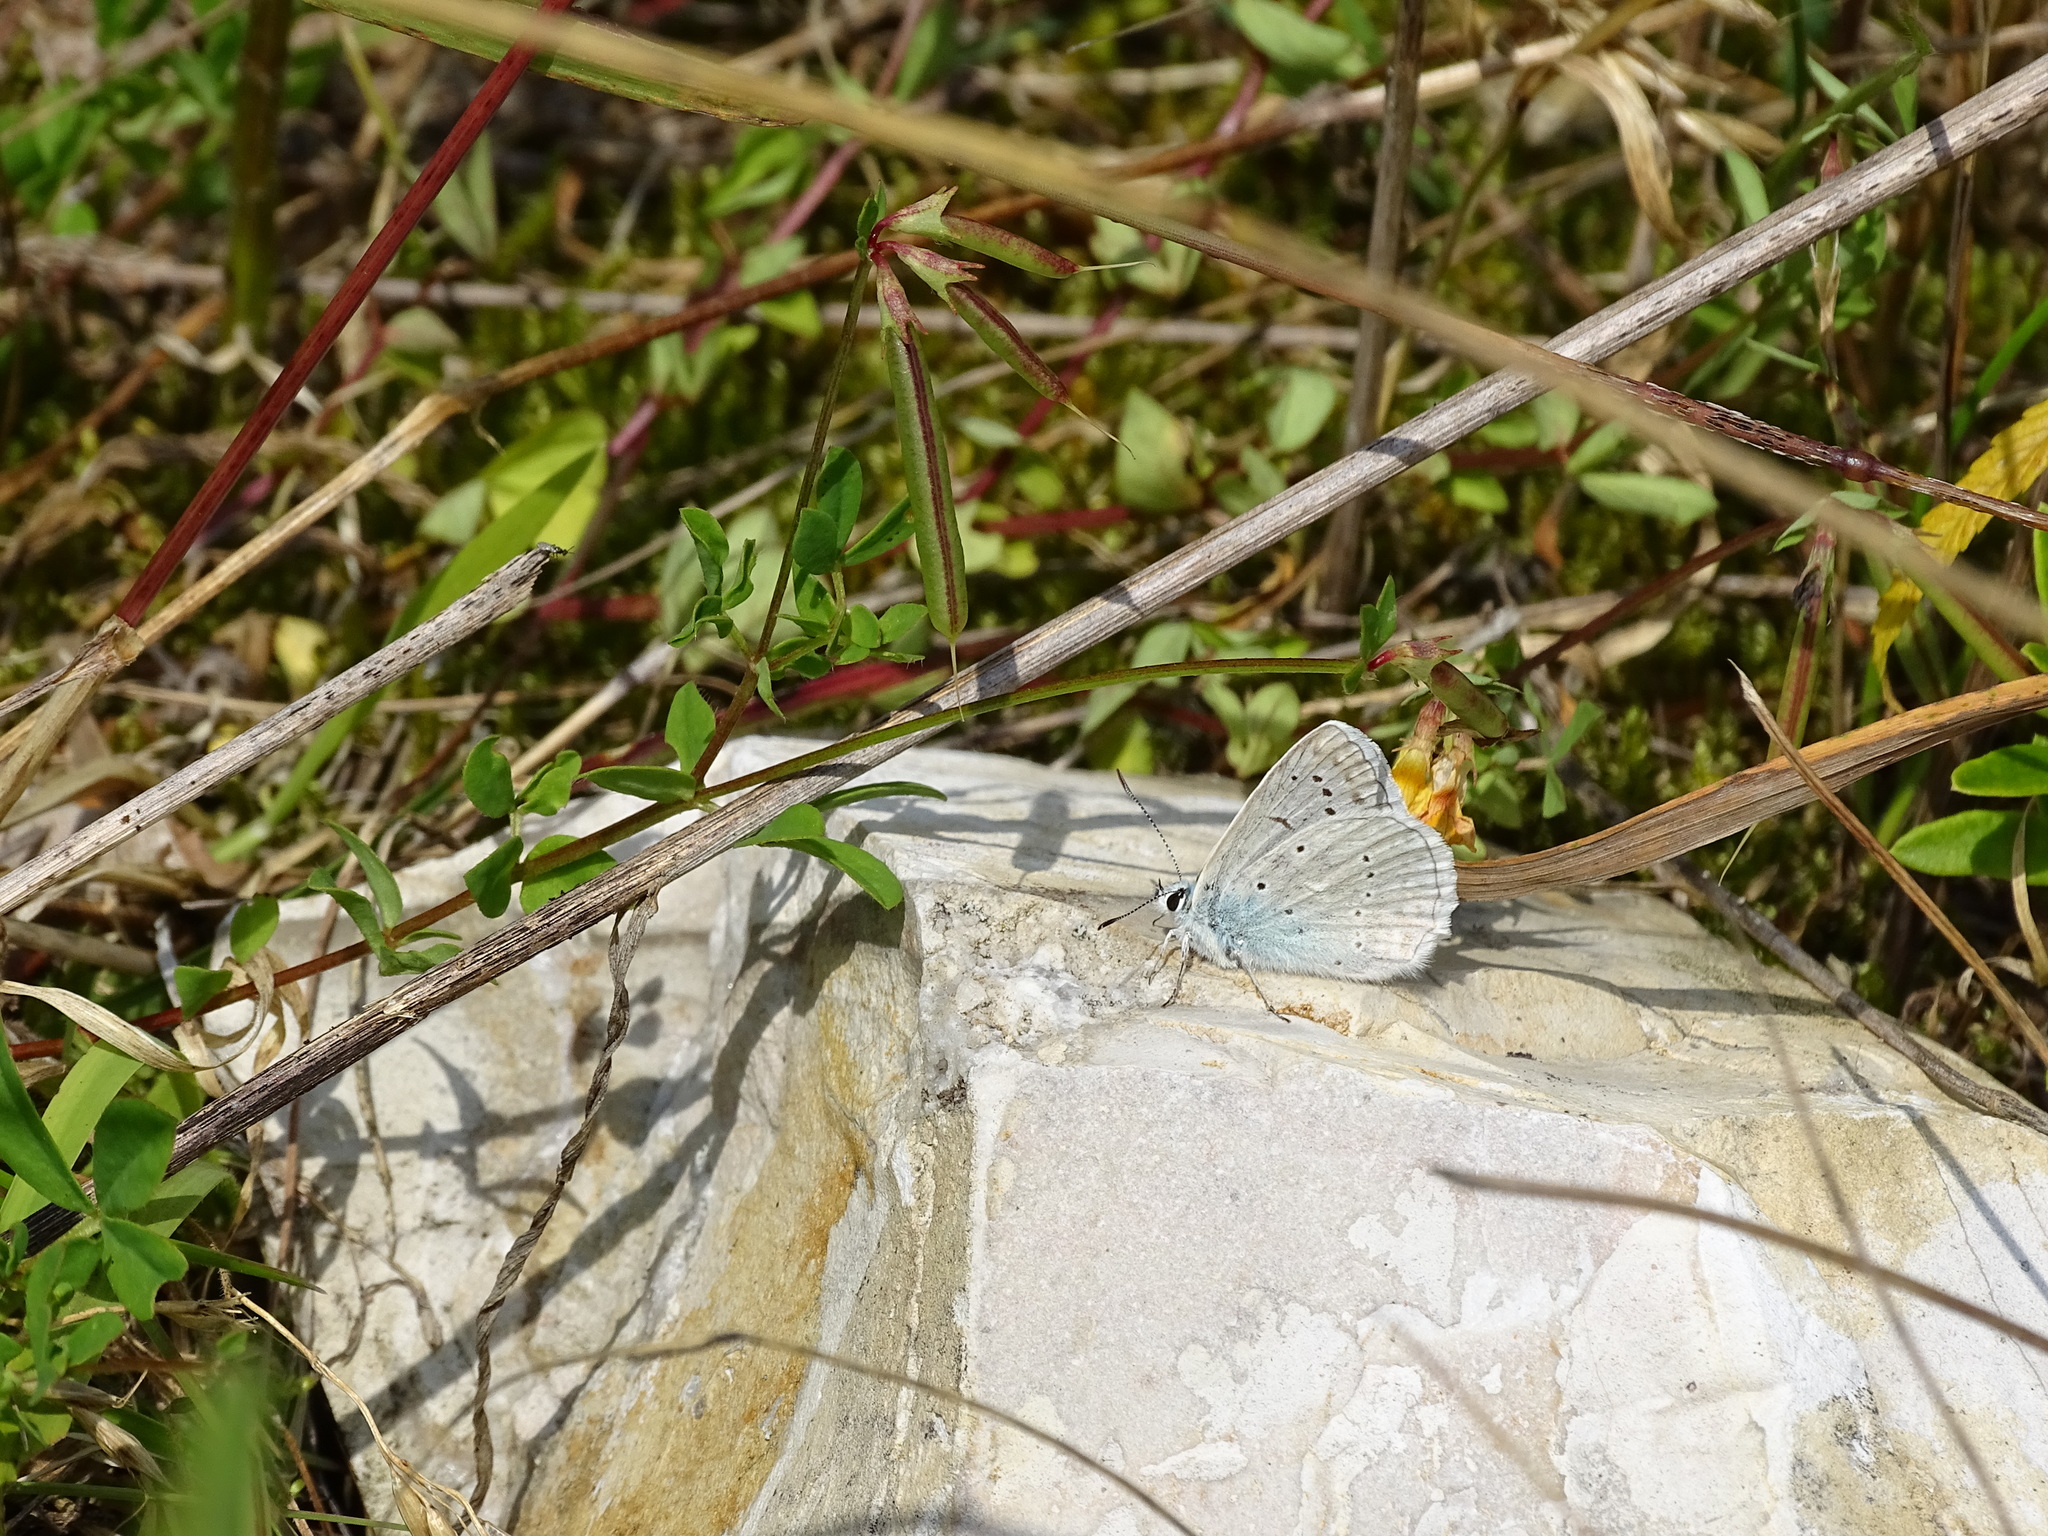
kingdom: Animalia
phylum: Arthropoda
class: Insecta
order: Lepidoptera
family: Lycaenidae
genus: Polyommatus
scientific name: Polyommatus daphnis
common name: Meleager's blue
